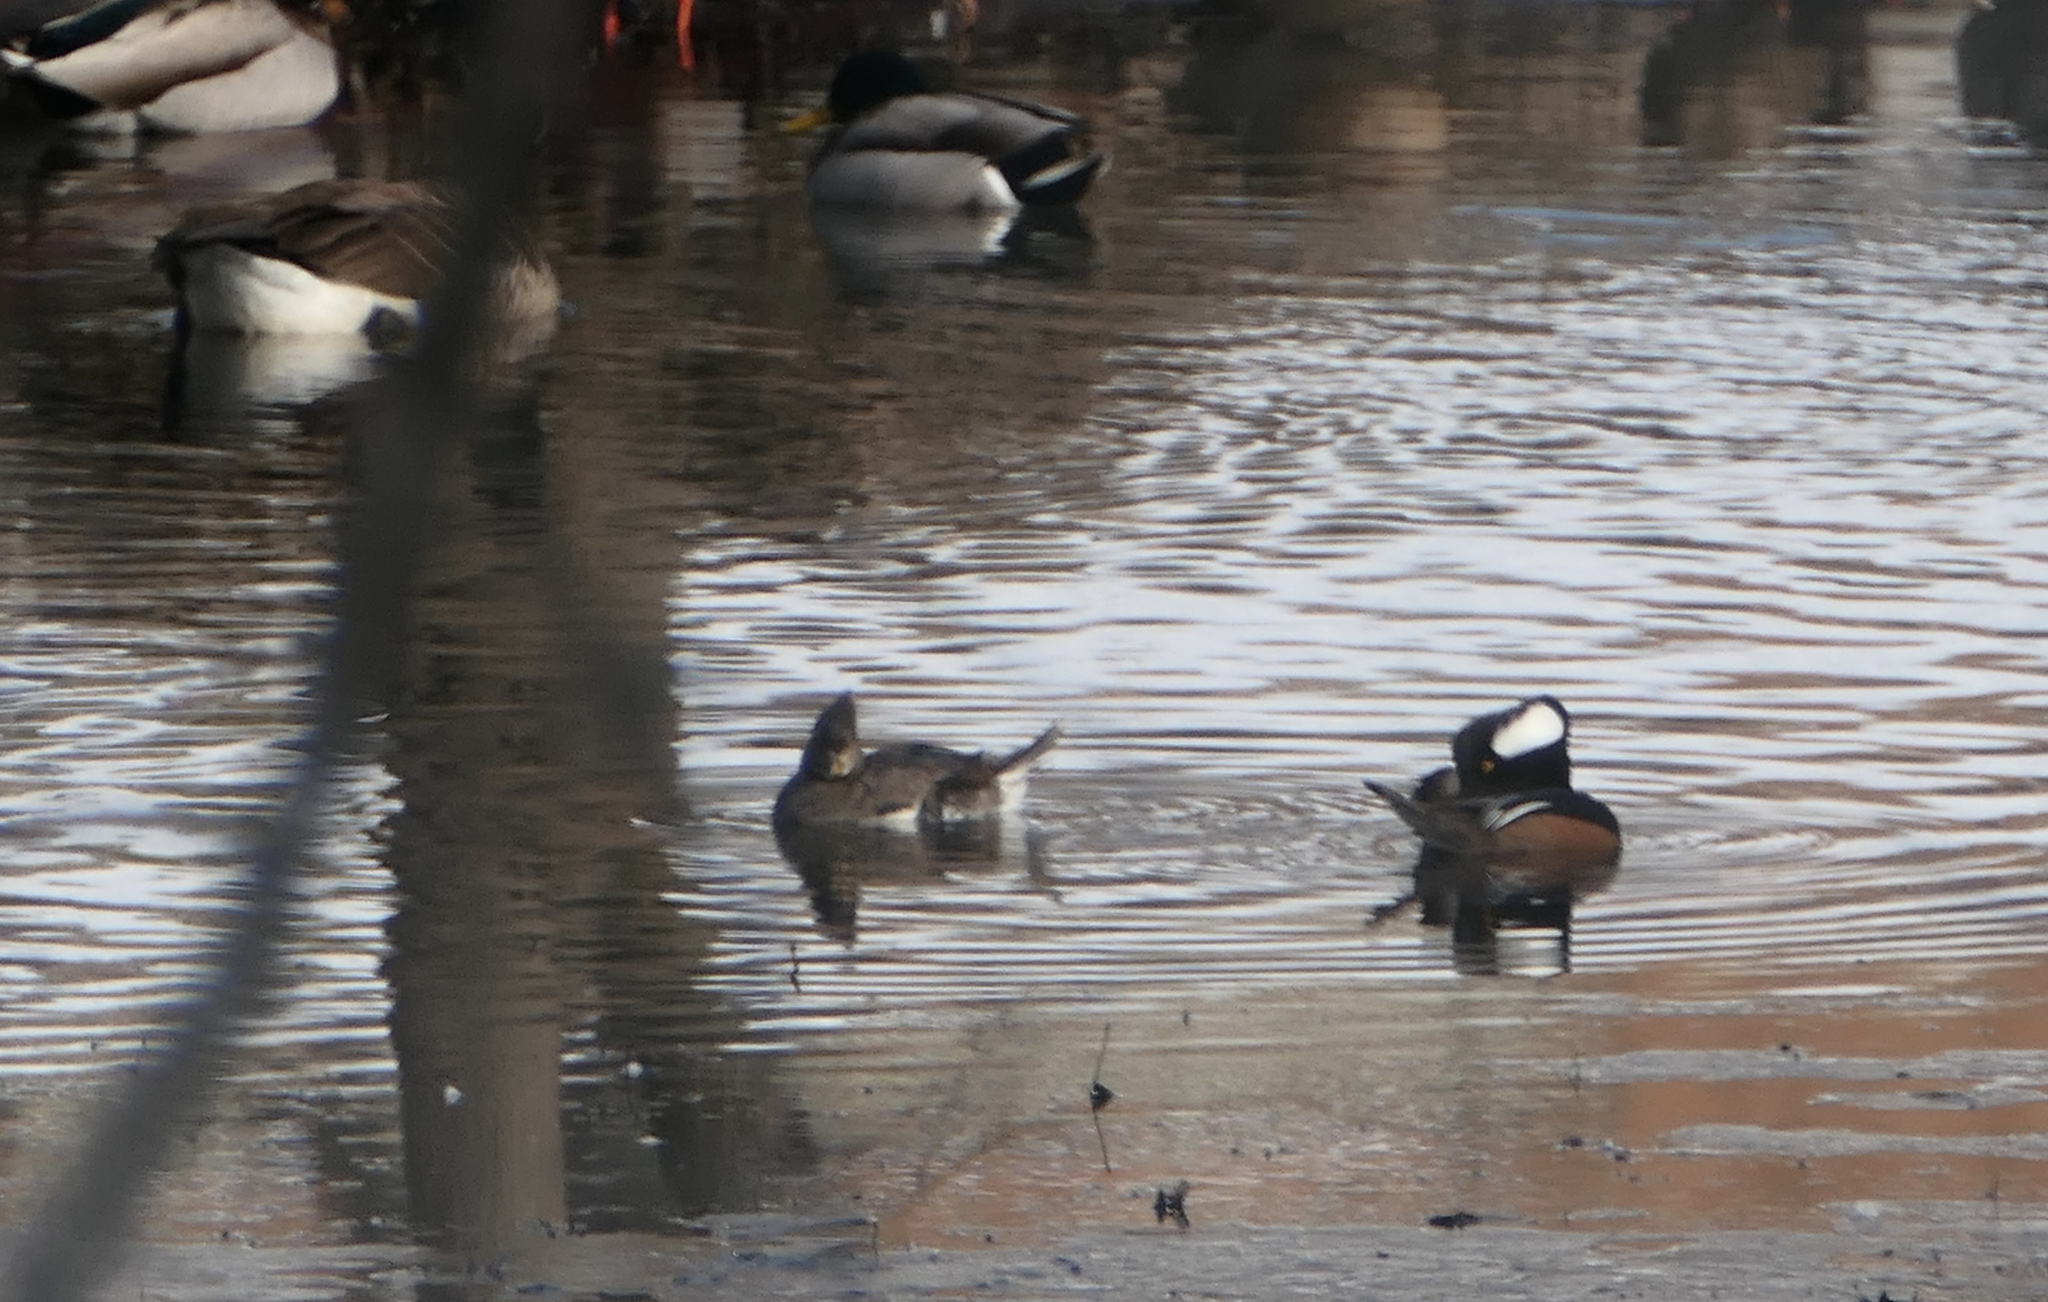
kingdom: Animalia
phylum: Chordata
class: Aves
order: Anseriformes
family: Anatidae
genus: Lophodytes
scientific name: Lophodytes cucullatus
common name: Hooded merganser
